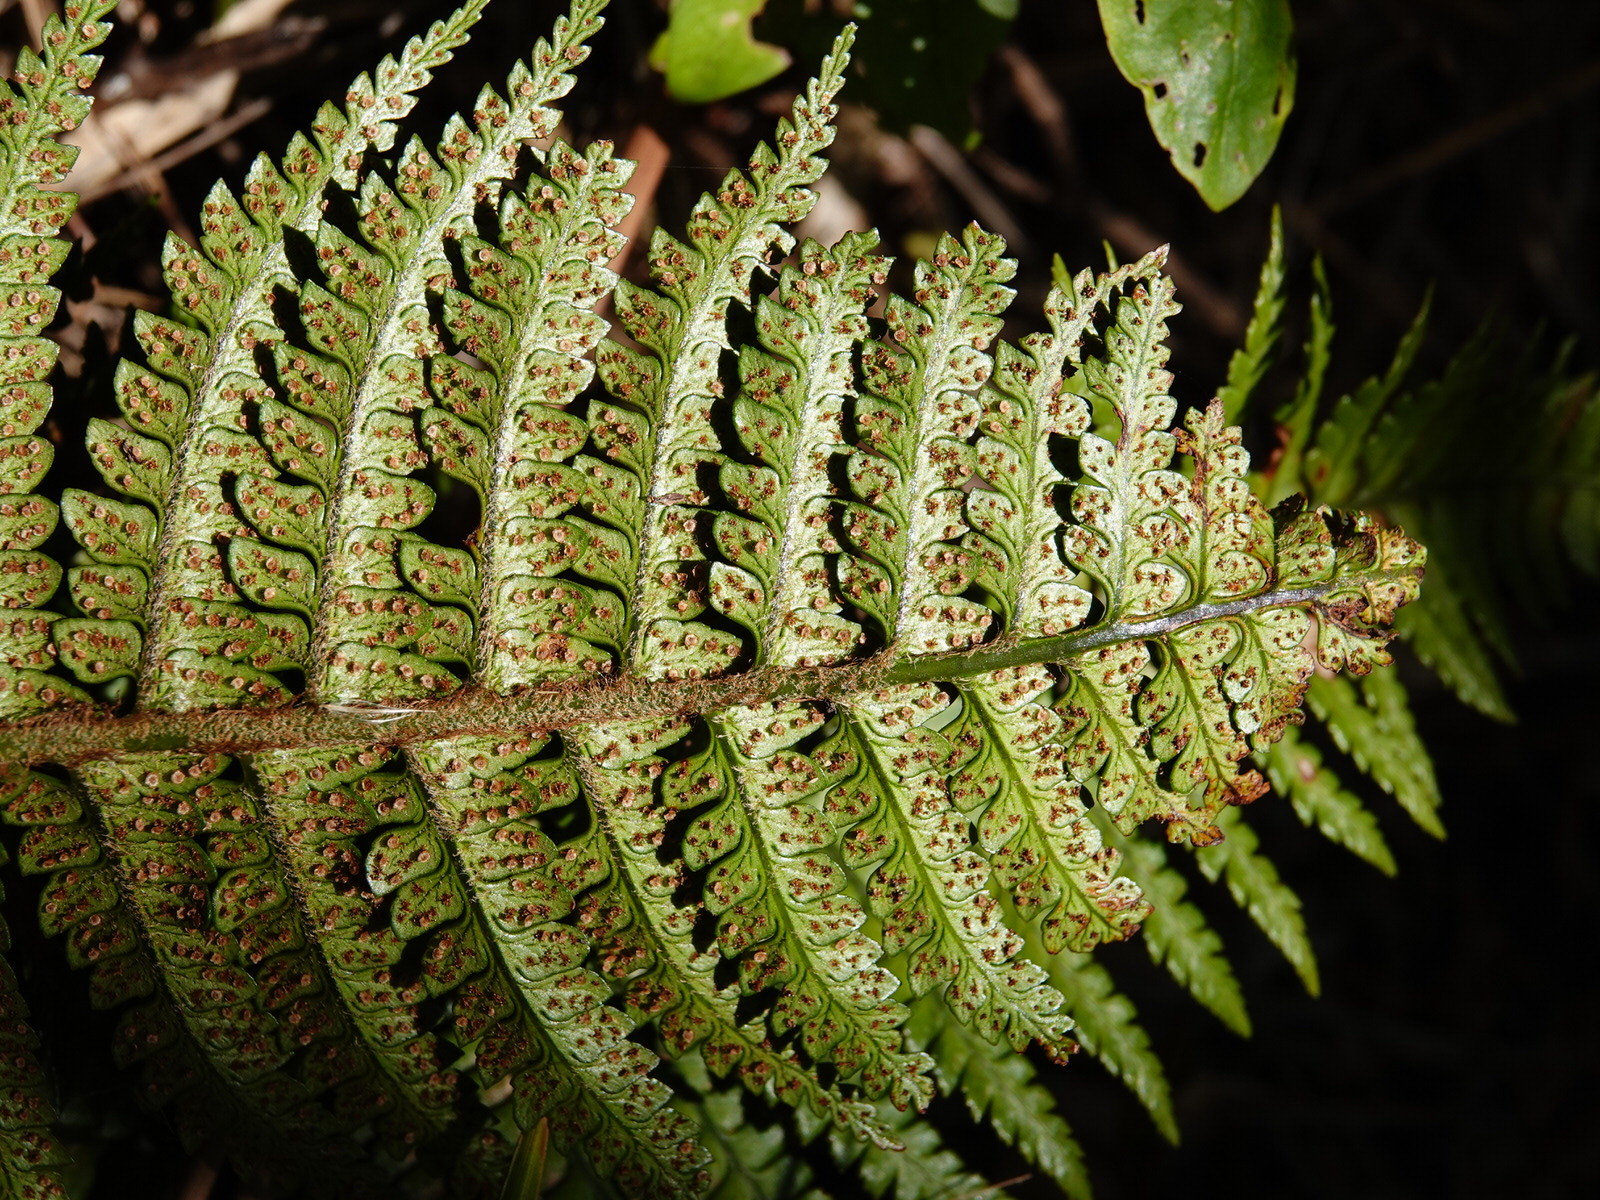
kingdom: Plantae
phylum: Tracheophyta
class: Polypodiopsida
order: Polypodiales
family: Dryopteridaceae
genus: Polystichum
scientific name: Polystichum wawranum
